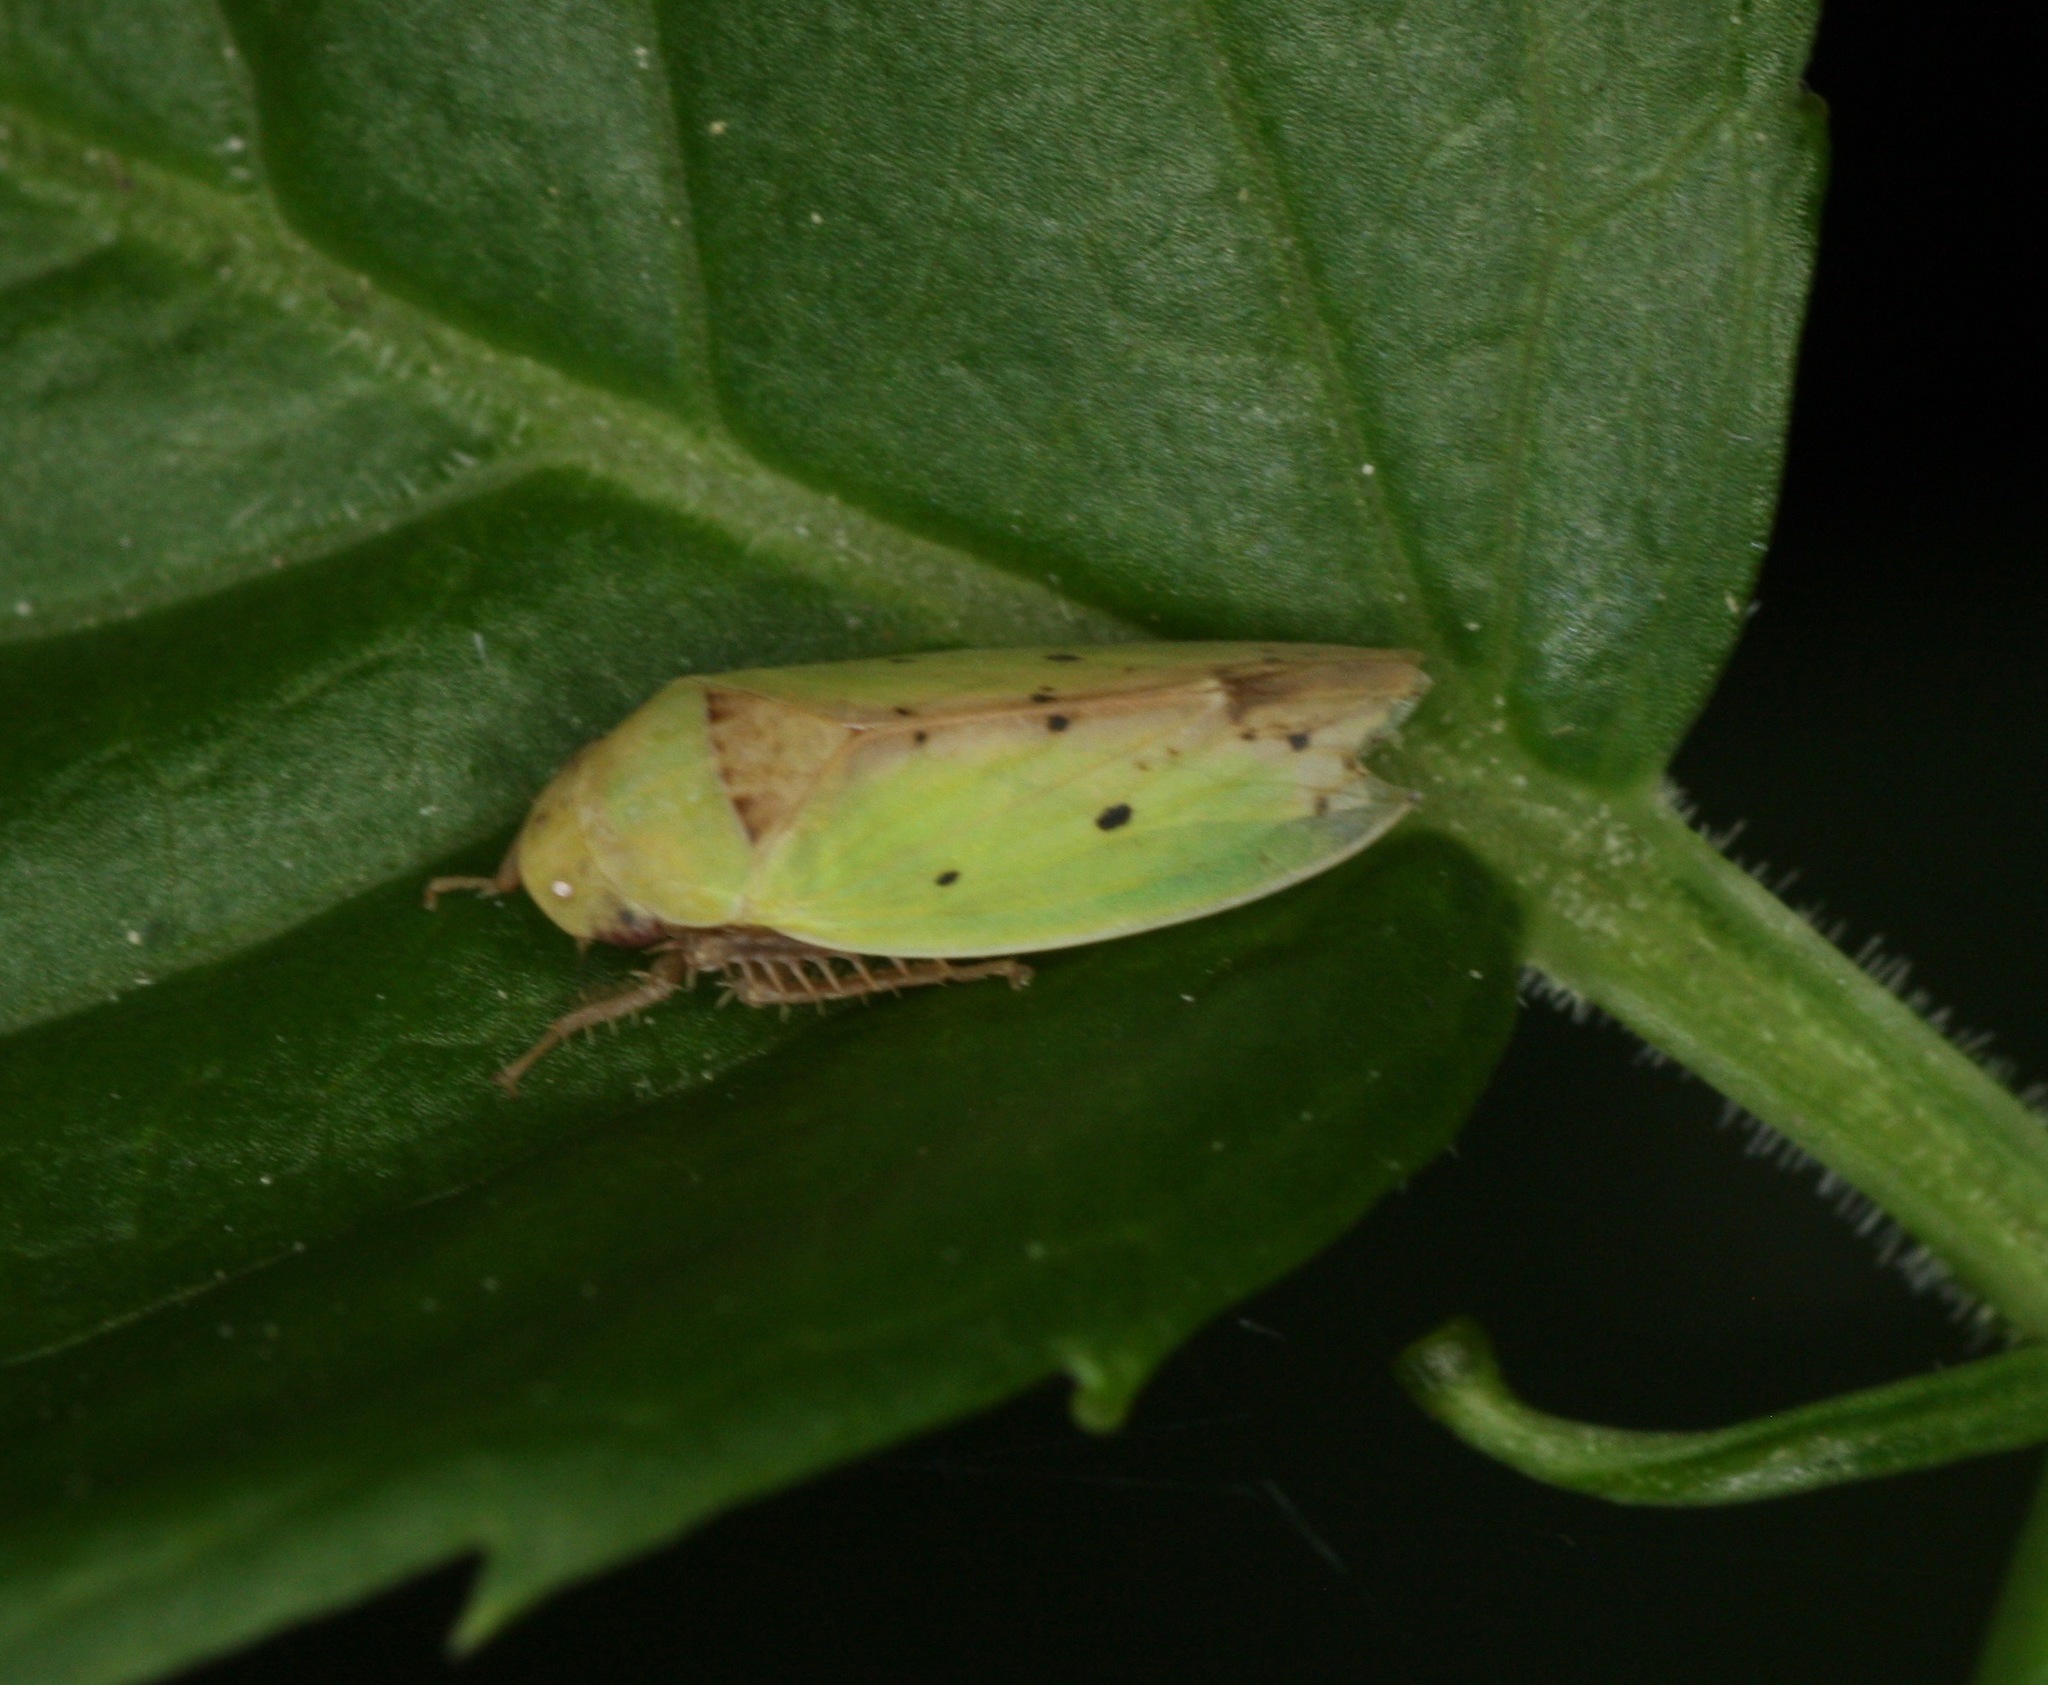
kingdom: Animalia
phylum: Arthropoda
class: Insecta
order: Hemiptera
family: Cicadellidae
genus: Ponana
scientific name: Ponana
